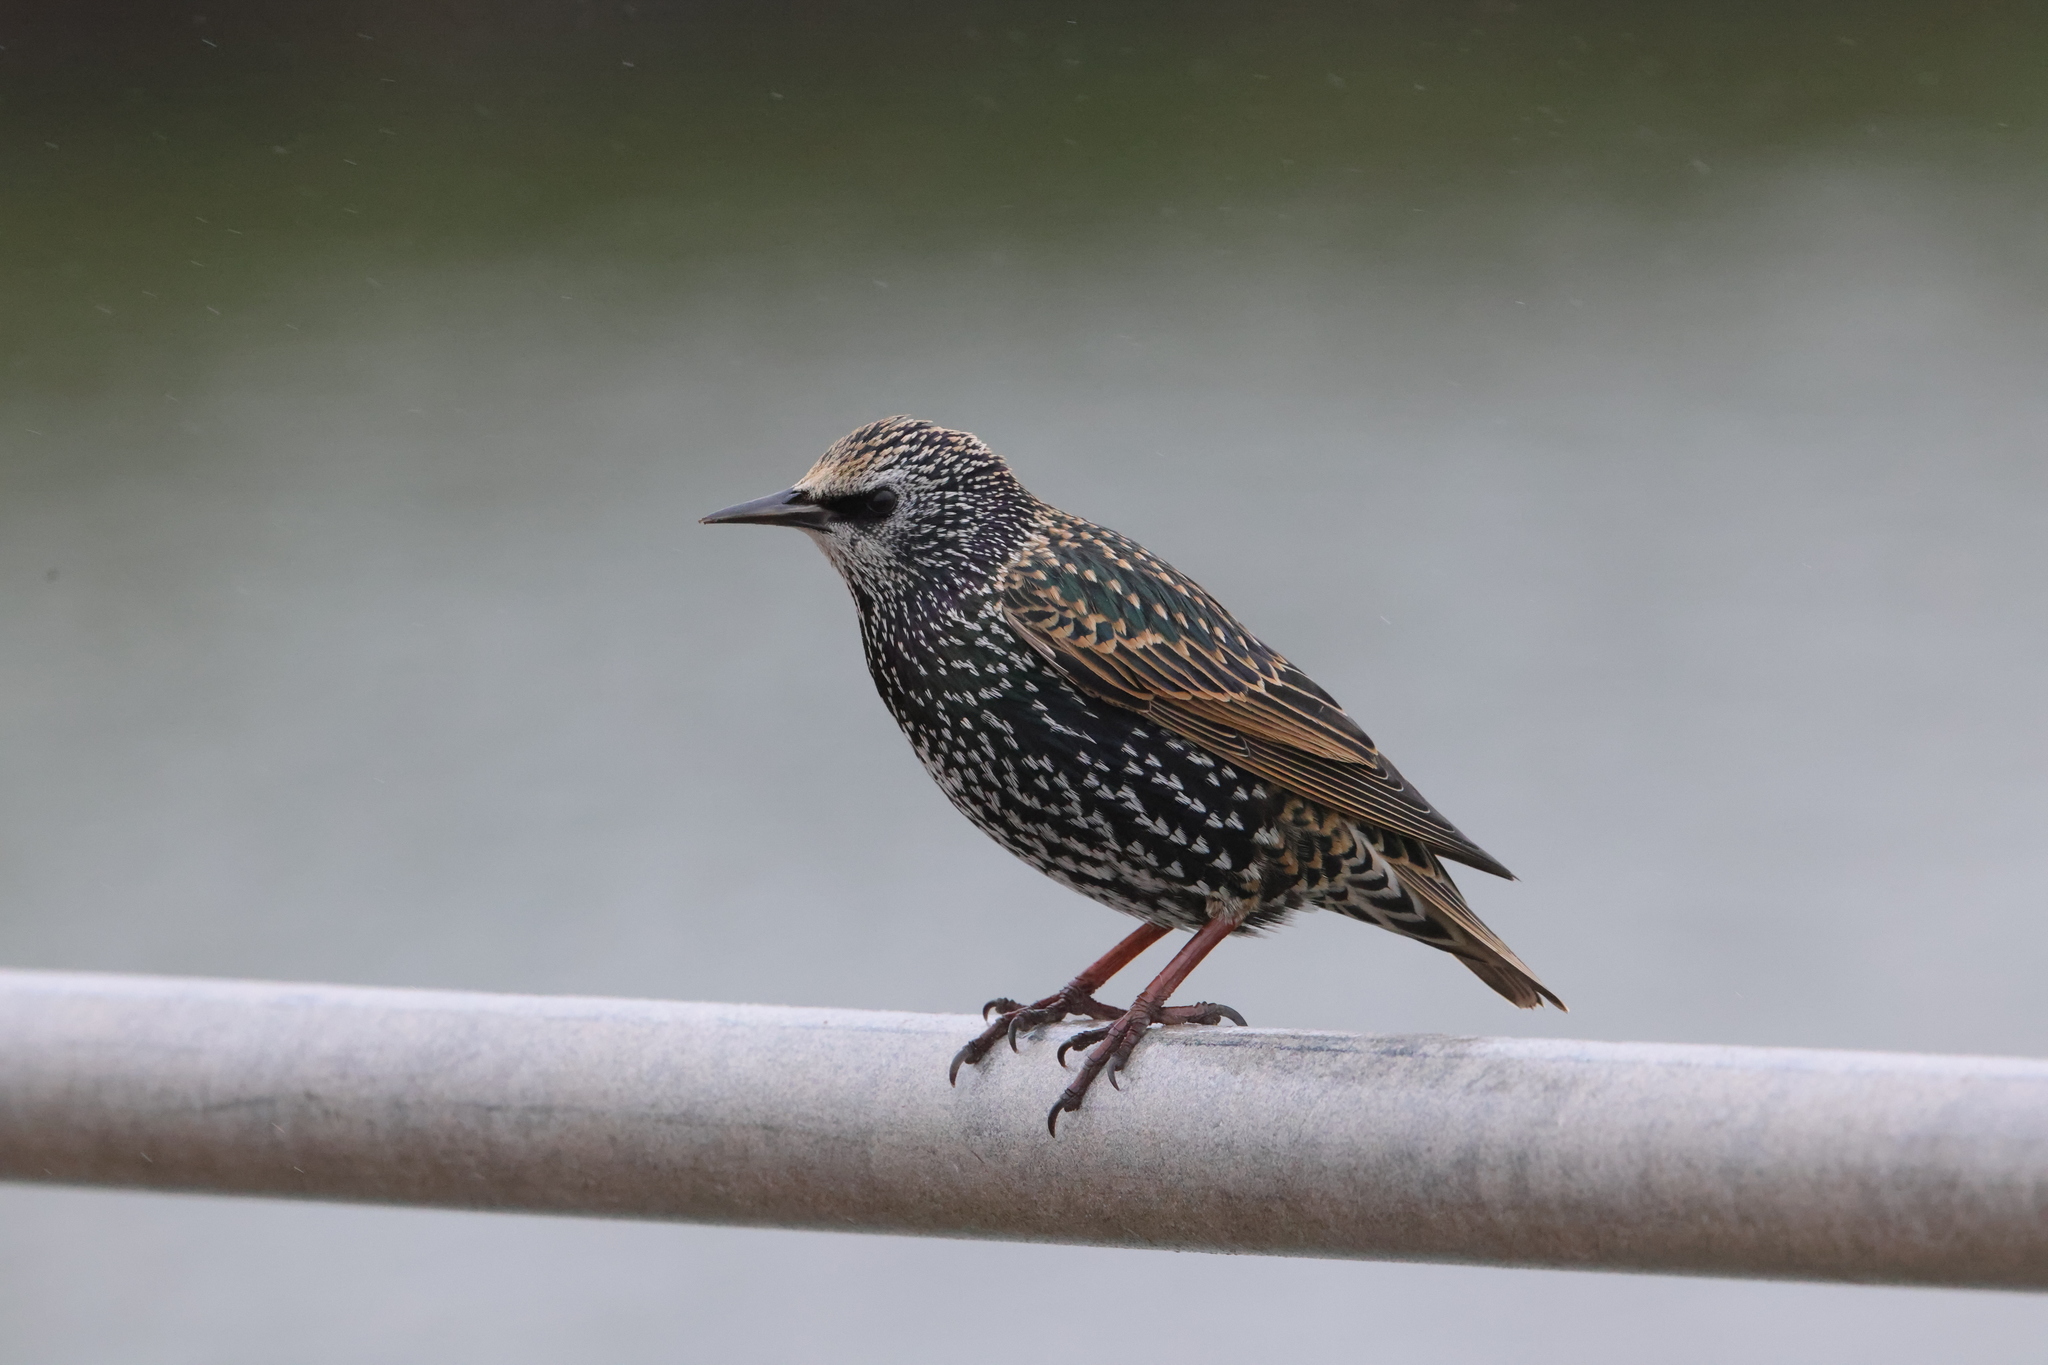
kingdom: Animalia
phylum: Chordata
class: Aves
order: Passeriformes
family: Sturnidae
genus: Sturnus
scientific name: Sturnus vulgaris
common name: Common starling
